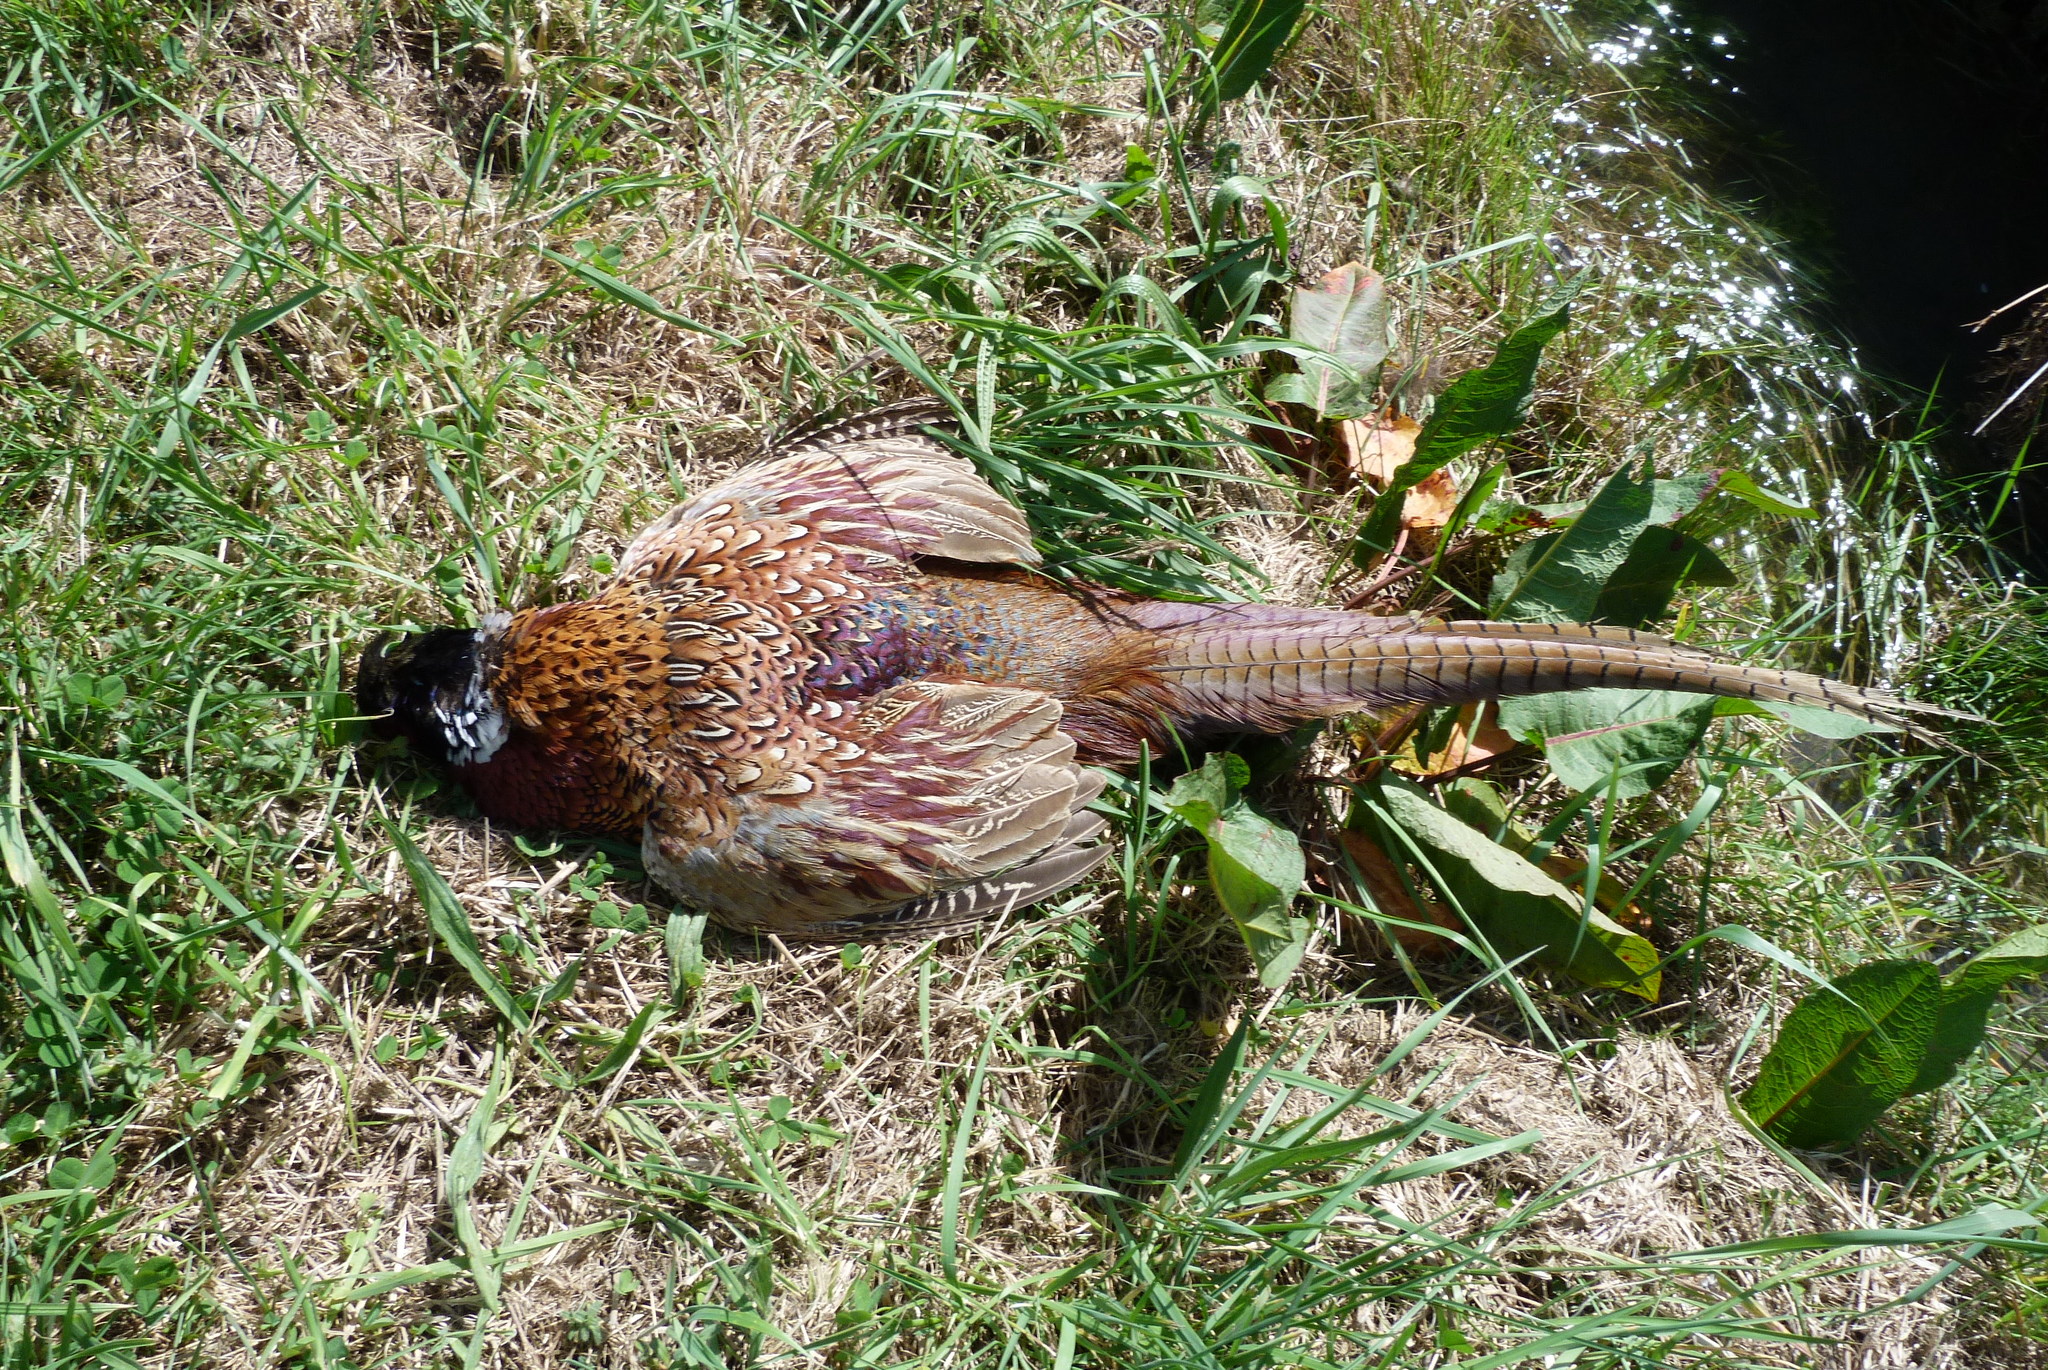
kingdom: Animalia
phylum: Chordata
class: Aves
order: Galliformes
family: Phasianidae
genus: Phasianus
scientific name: Phasianus colchicus
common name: Common pheasant
